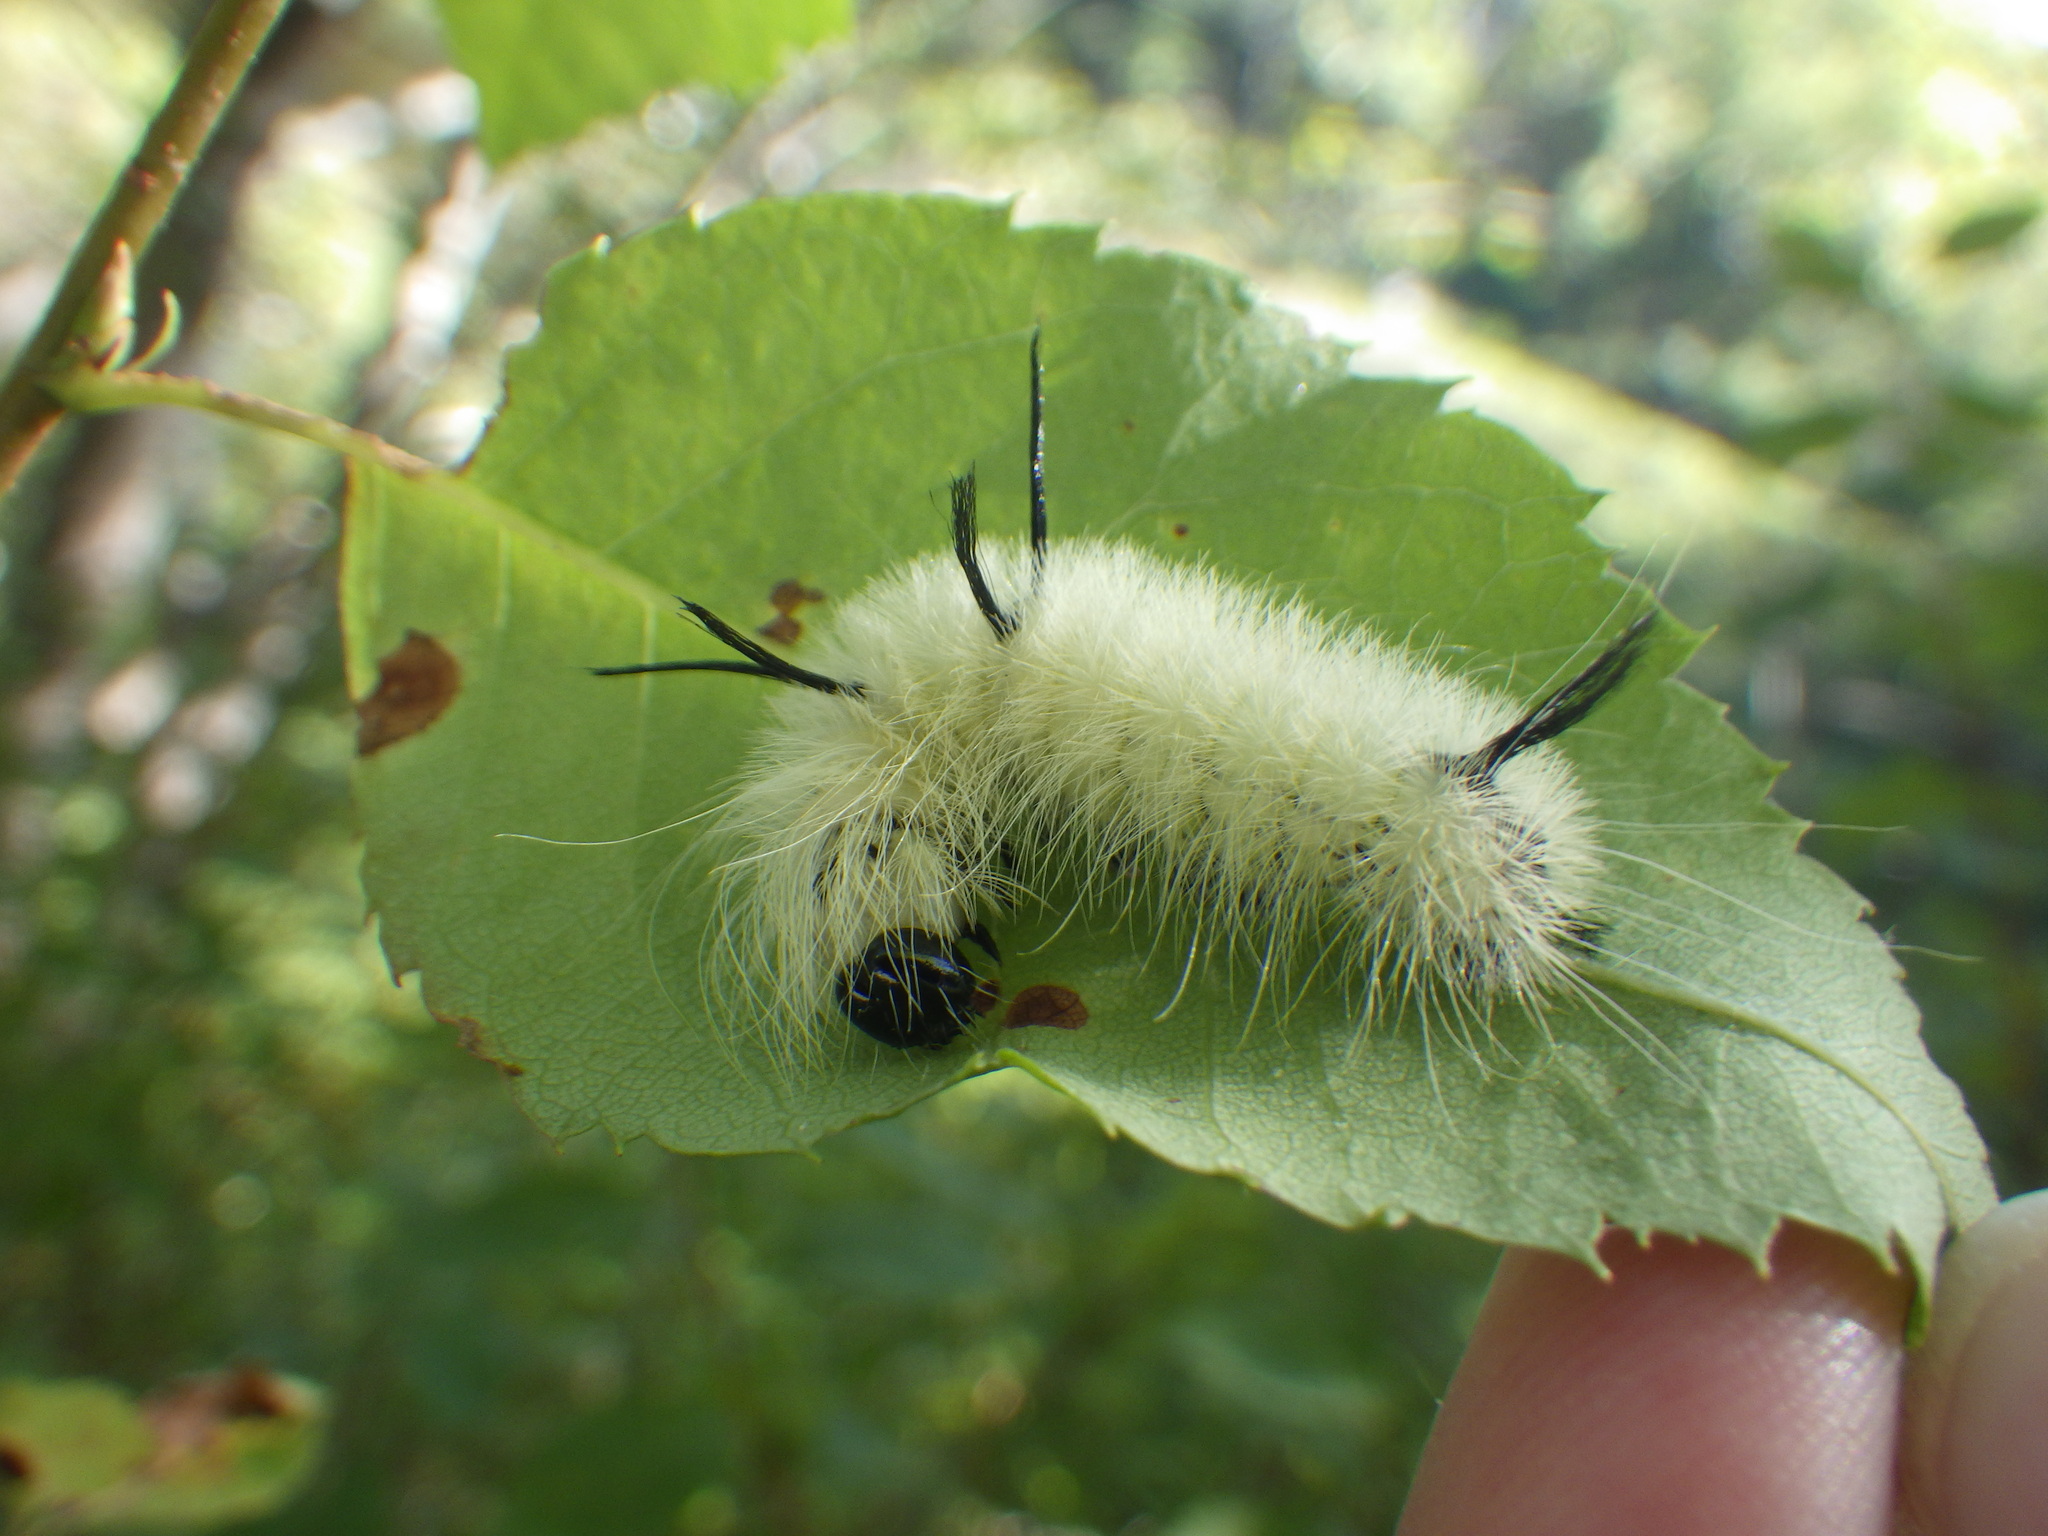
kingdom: Animalia
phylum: Arthropoda
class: Insecta
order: Lepidoptera
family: Noctuidae
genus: Acronicta
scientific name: Acronicta americana
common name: American dagger
